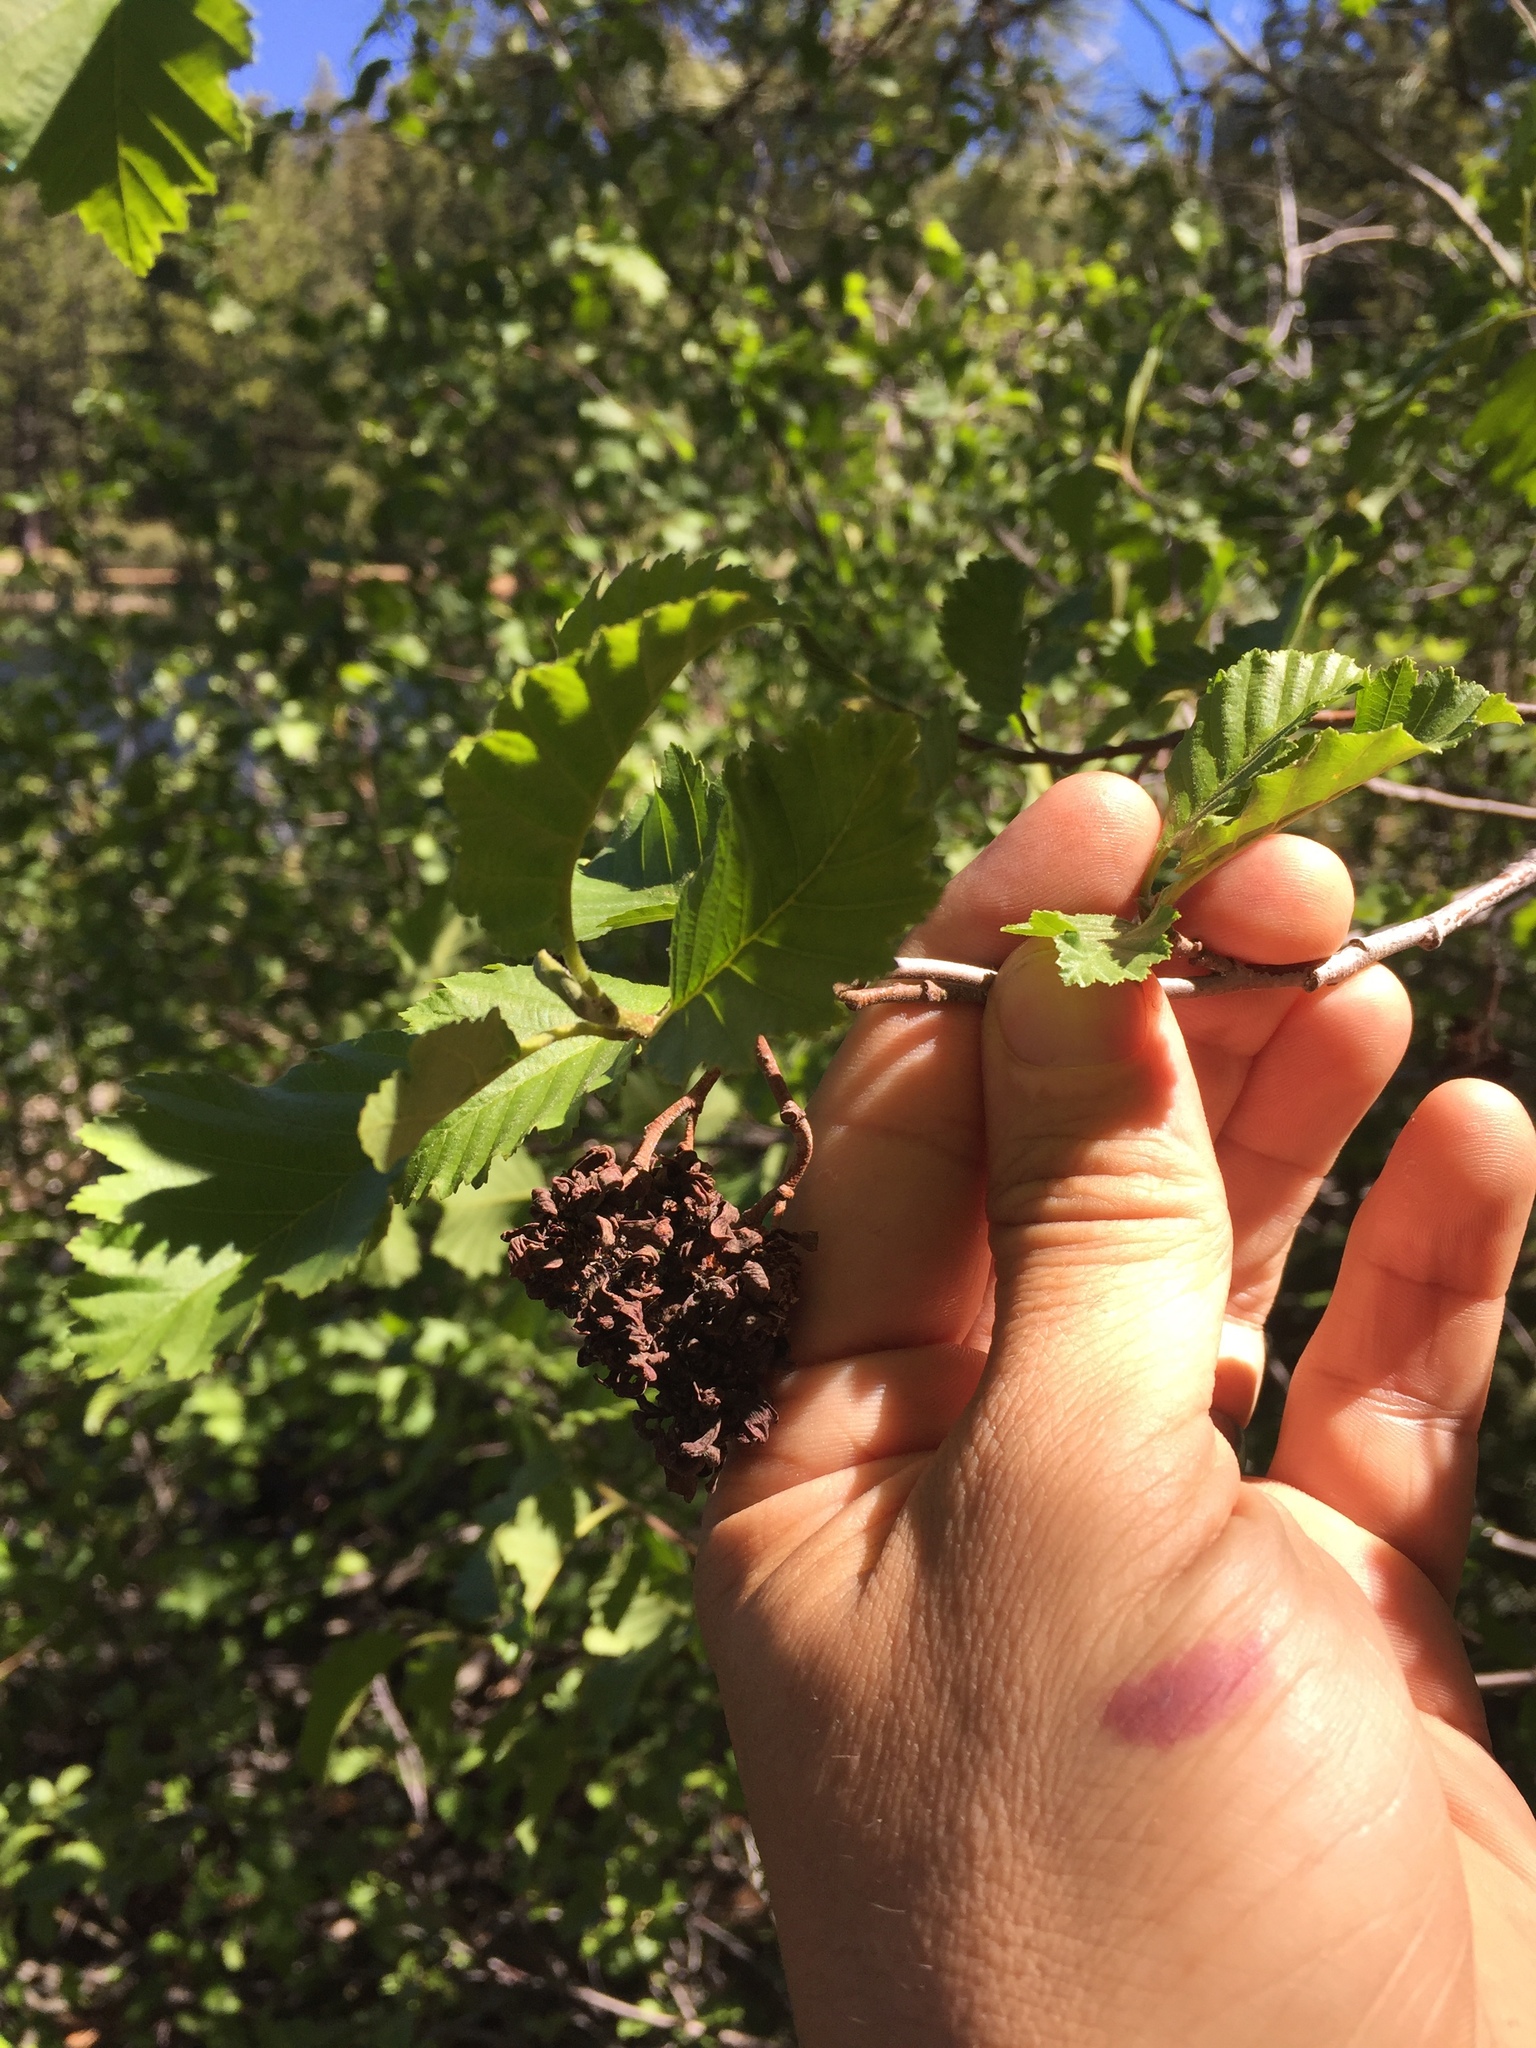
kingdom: Plantae
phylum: Tracheophyta
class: Magnoliopsida
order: Fagales
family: Betulaceae
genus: Alnus
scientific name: Alnus incana
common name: Grey alder
